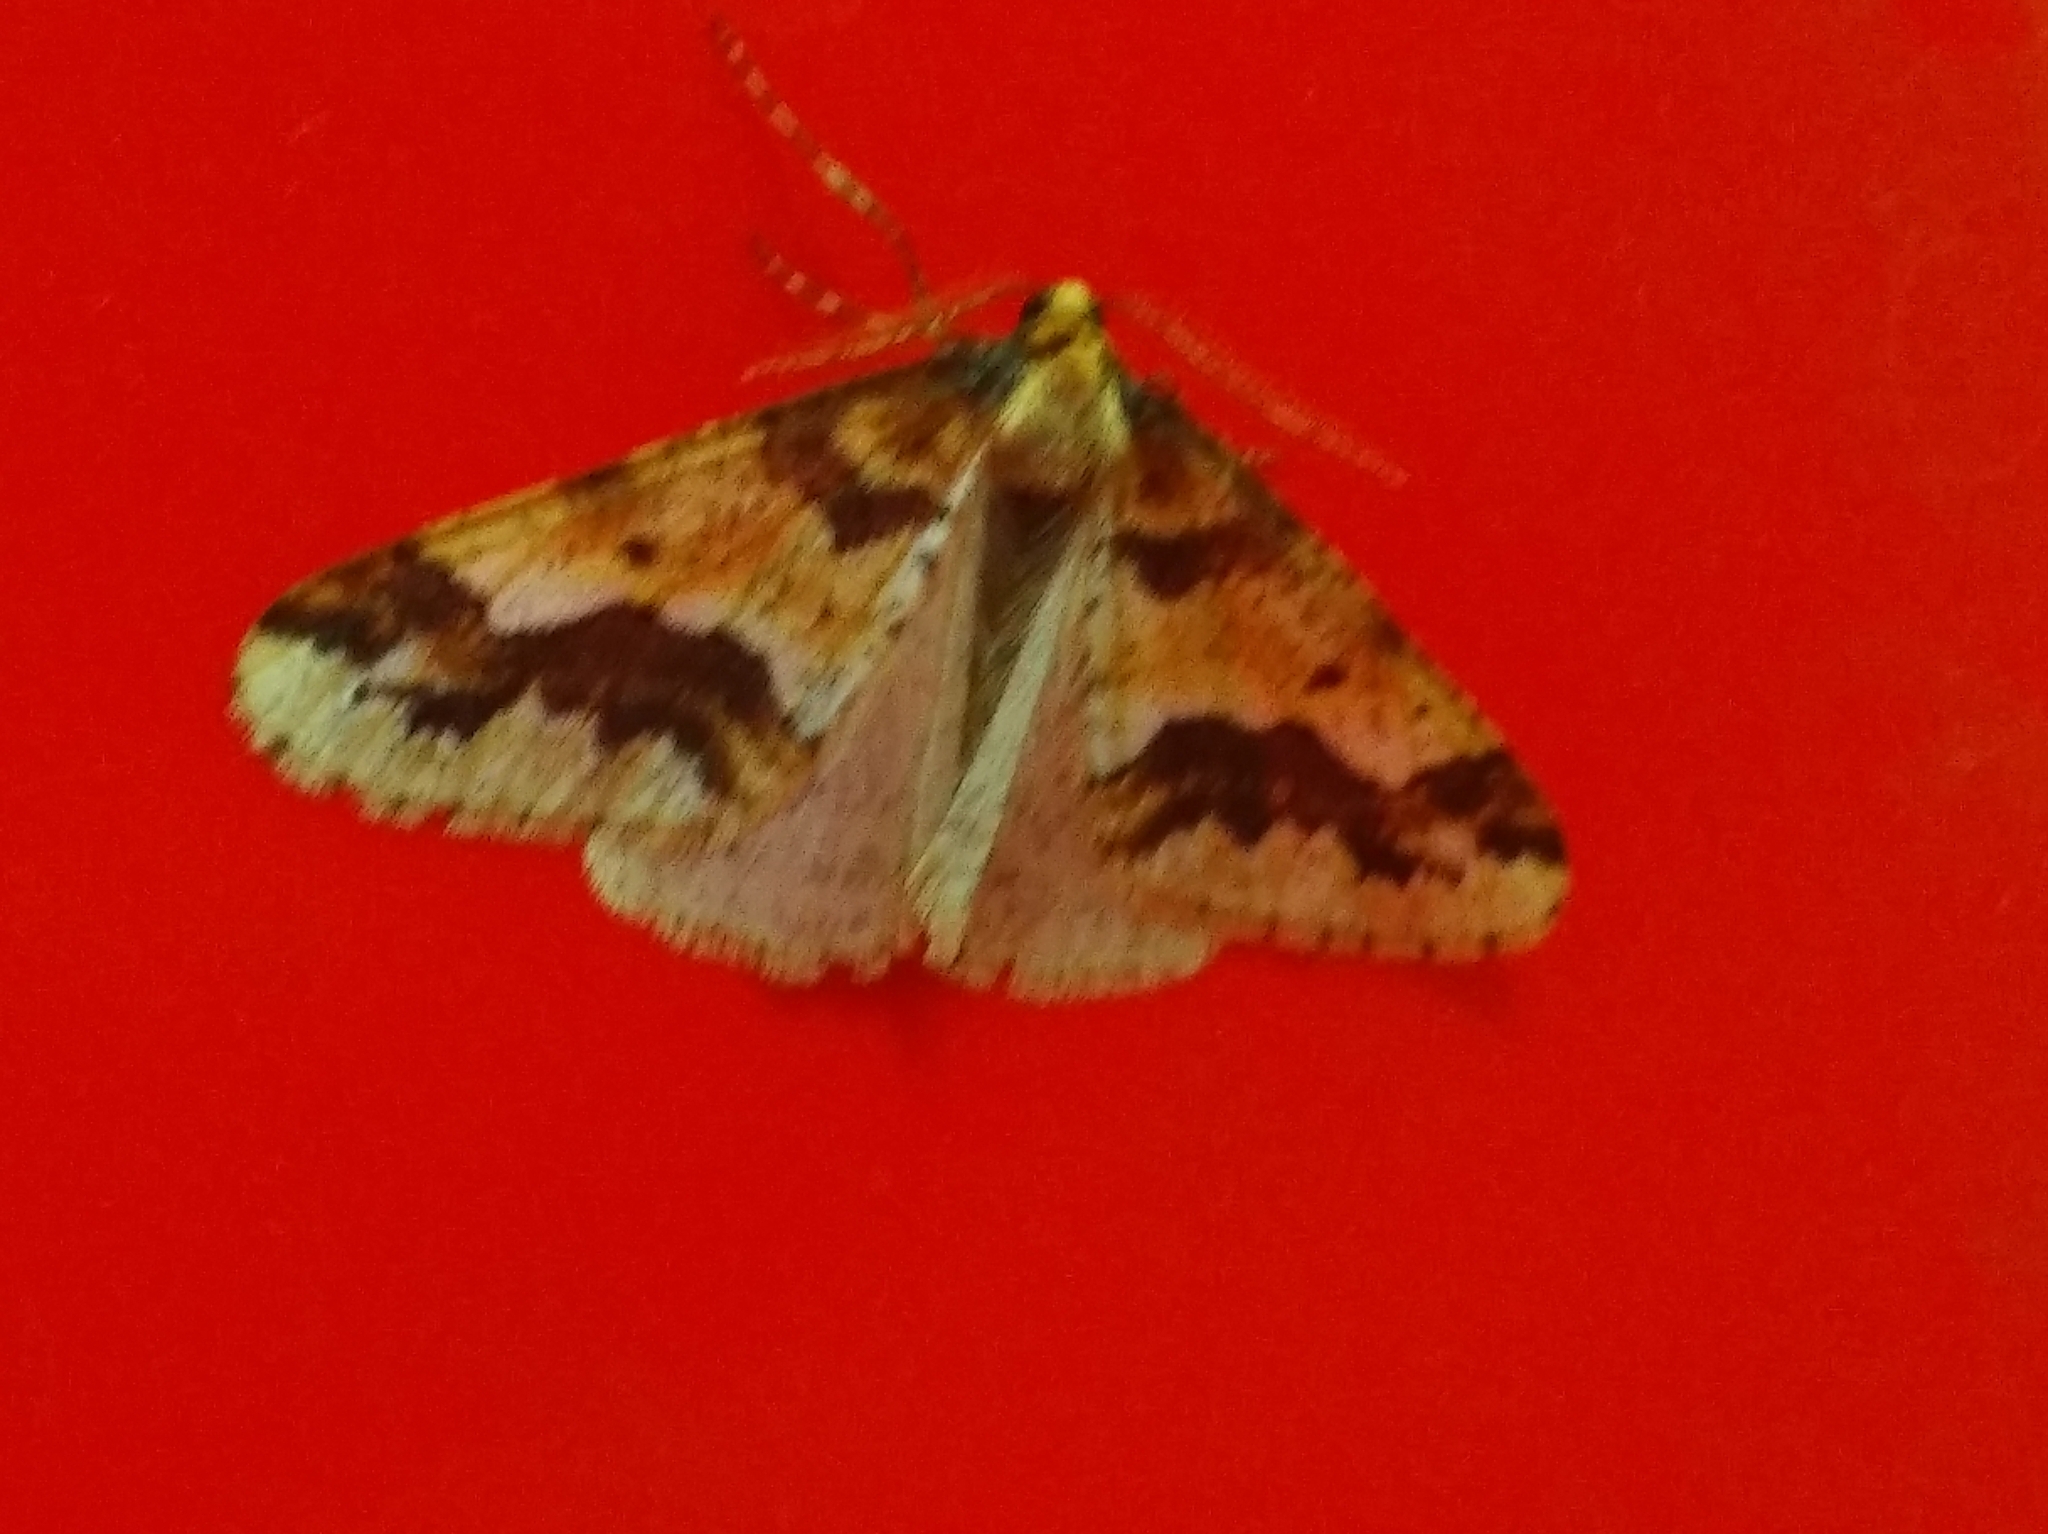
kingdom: Animalia
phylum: Arthropoda
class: Insecta
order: Lepidoptera
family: Geometridae
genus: Erannis
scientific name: Erannis defoliaria
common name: Mottled umber
